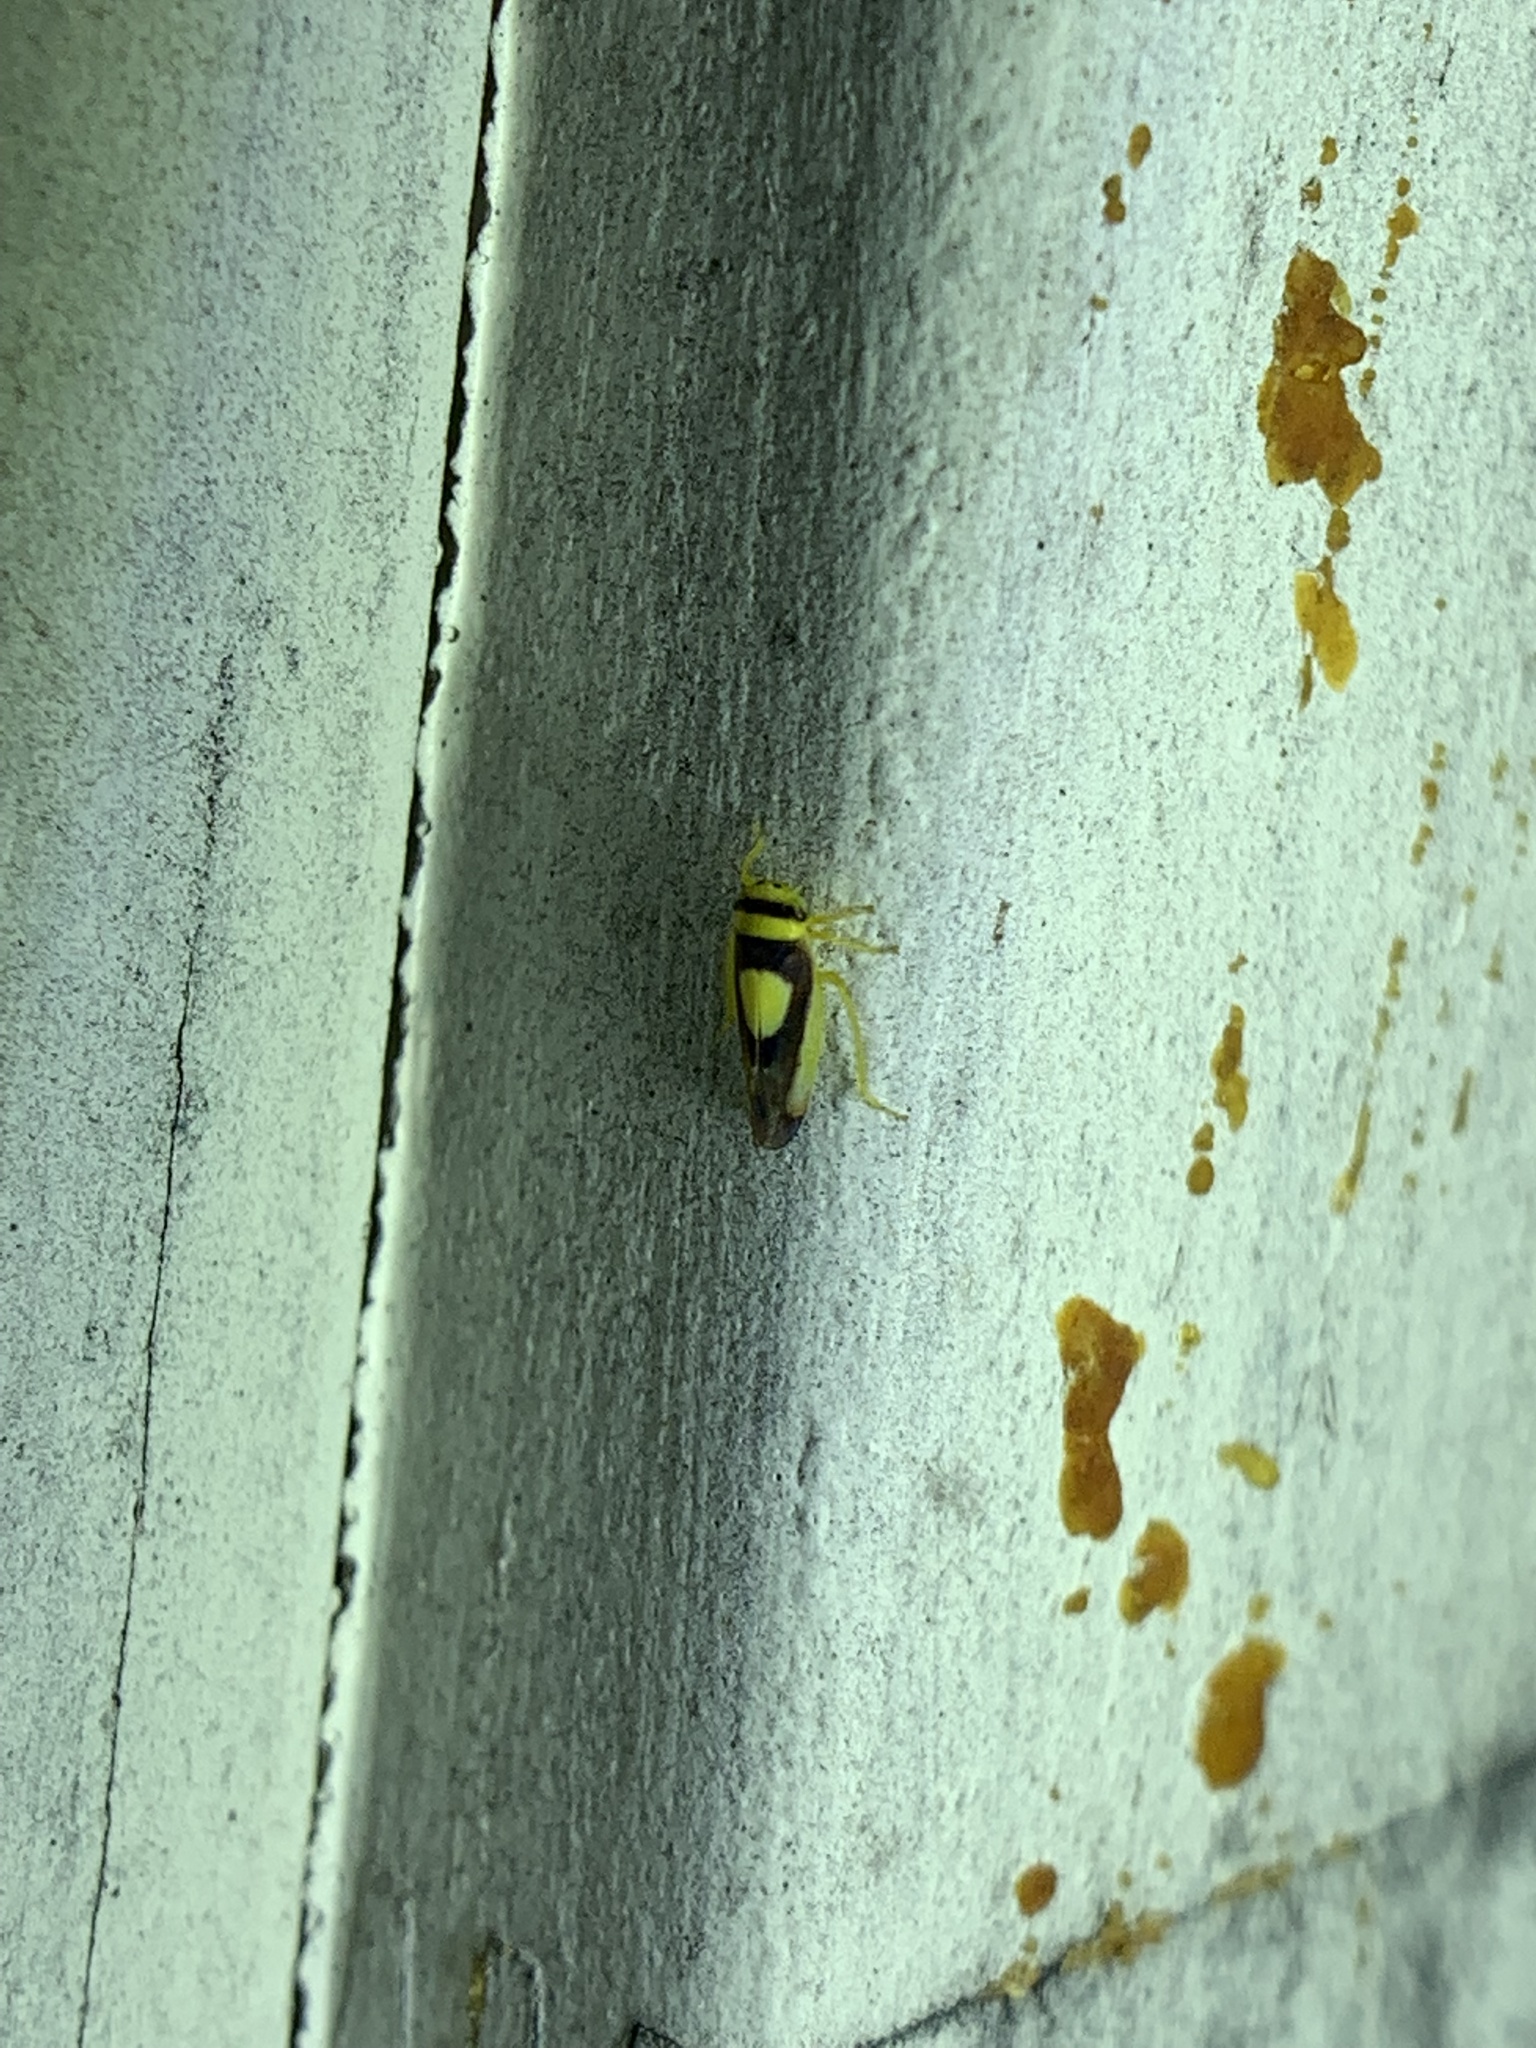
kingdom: Animalia
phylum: Arthropoda
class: Insecta
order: Hemiptera
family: Cicadellidae
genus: Colladonus
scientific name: Colladonus clitellarius
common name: The saddleback leafhopper
